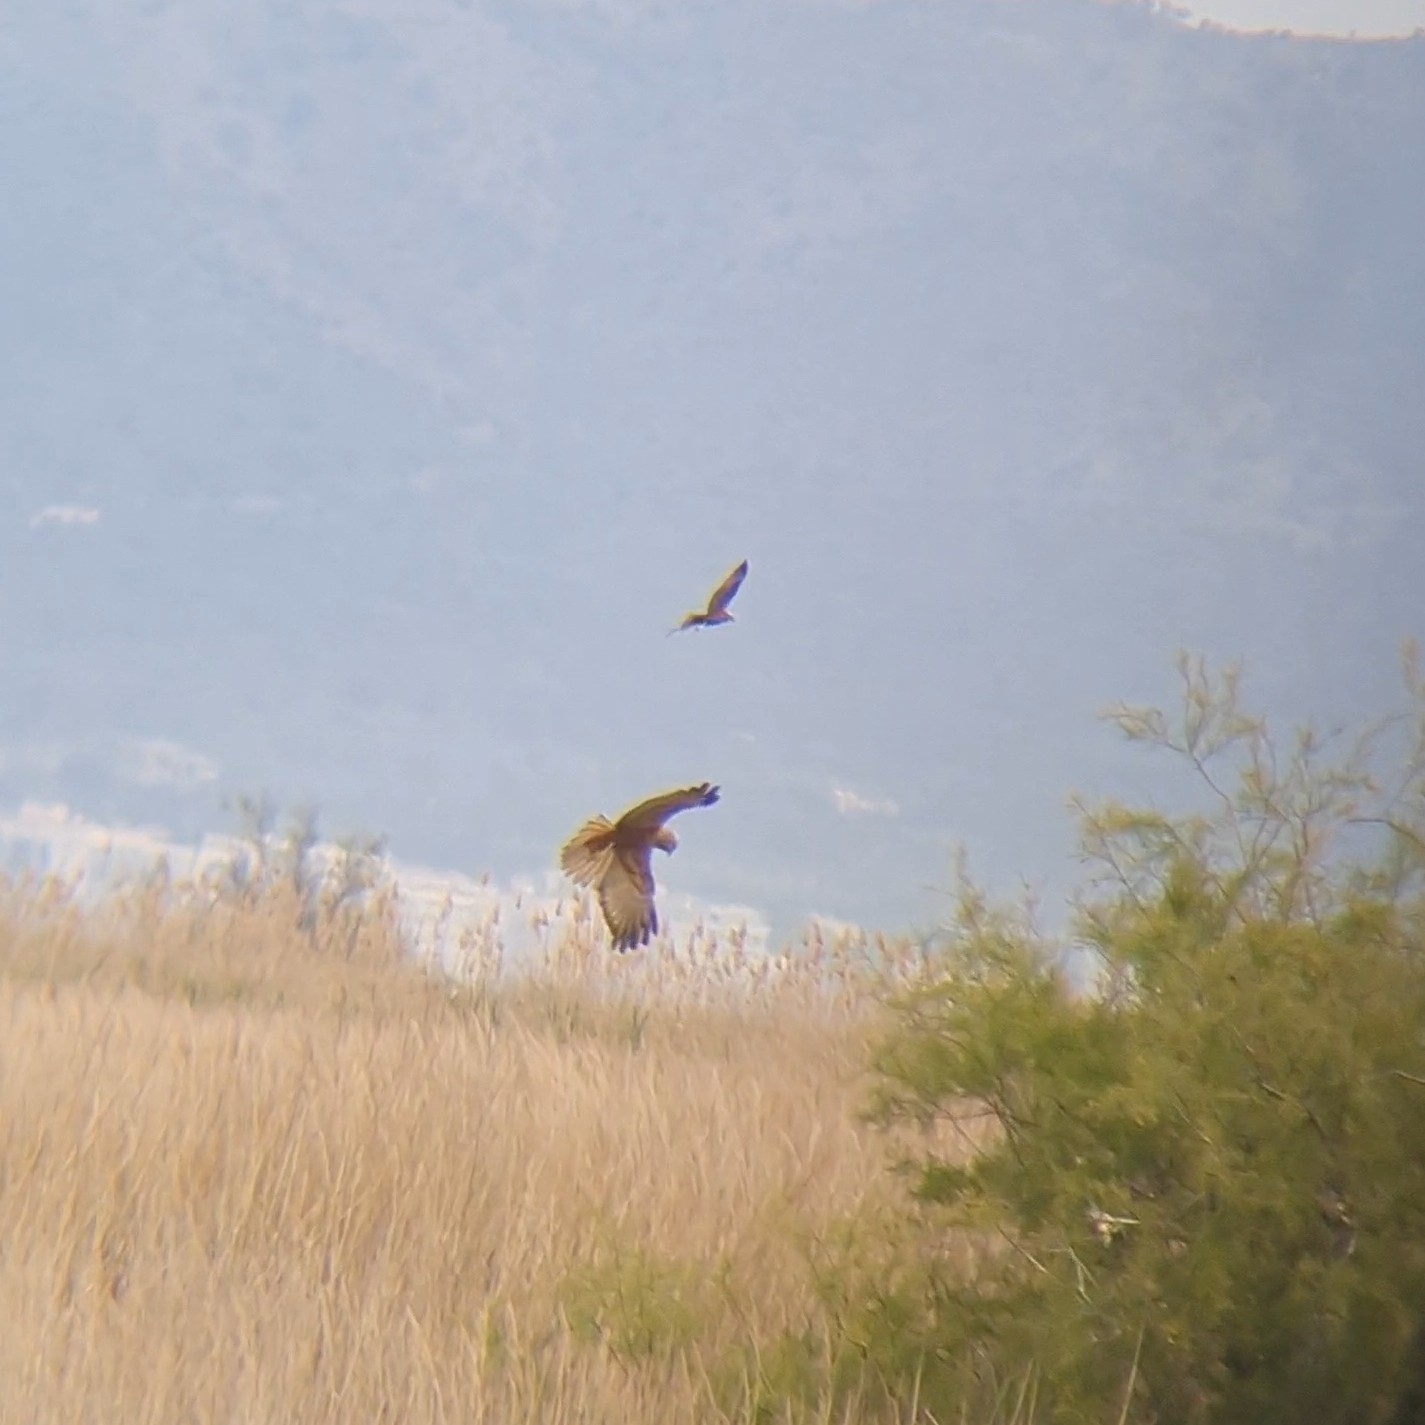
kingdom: Animalia
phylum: Chordata
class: Aves
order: Accipitriformes
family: Accipitridae
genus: Circus
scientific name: Circus aeruginosus
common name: Western marsh harrier
